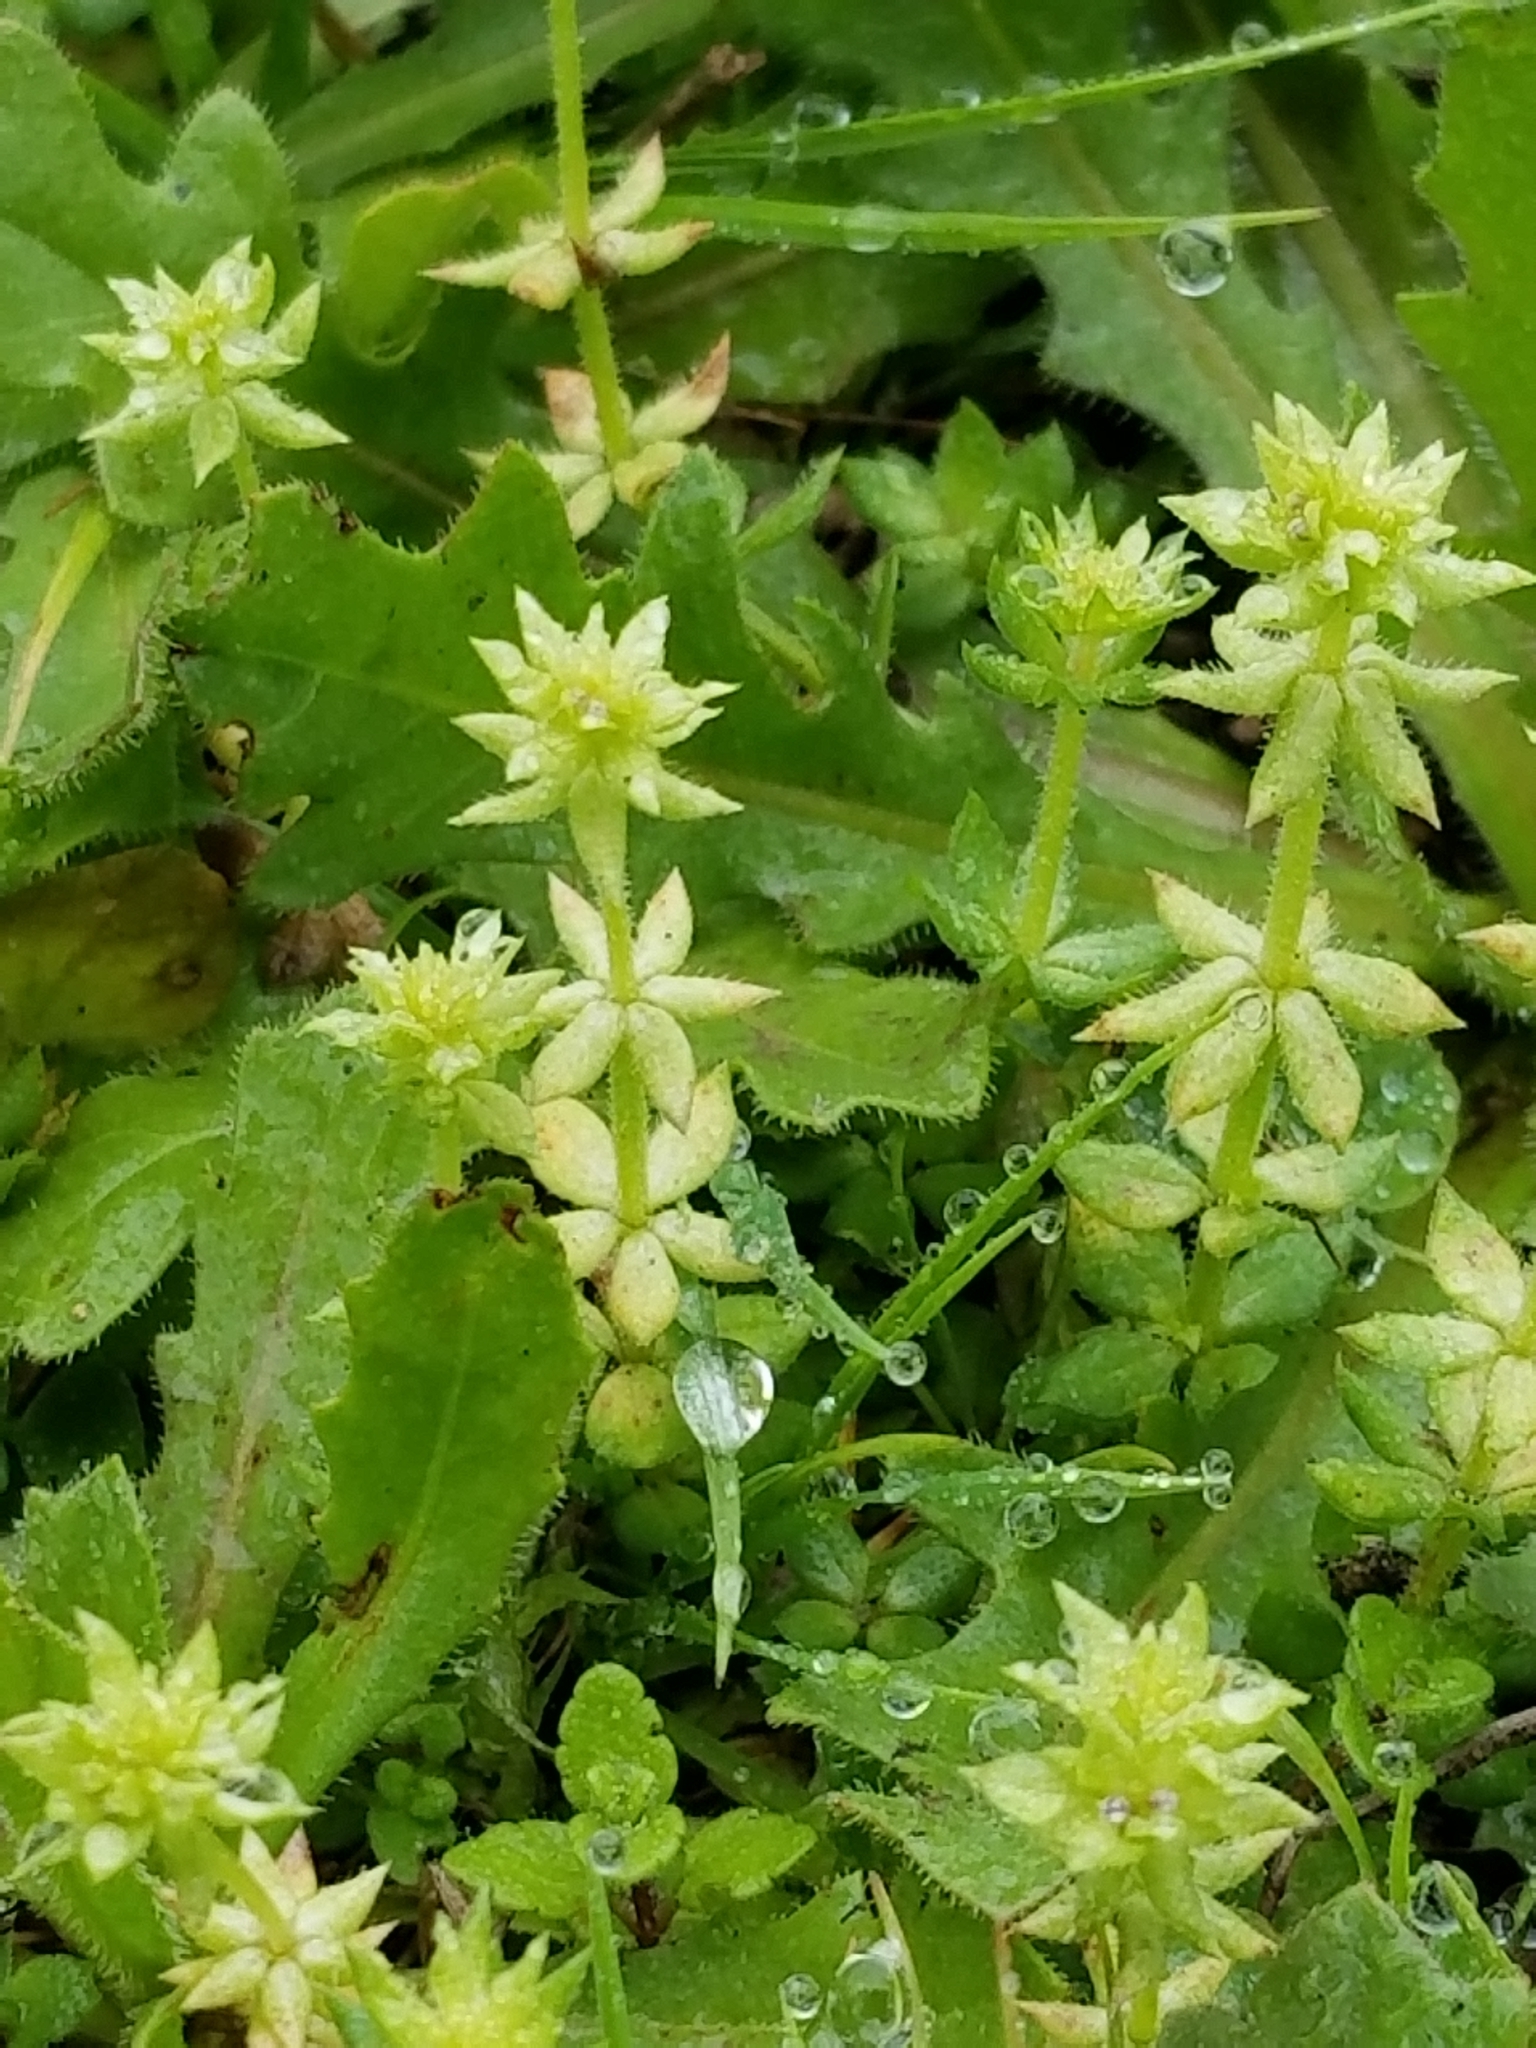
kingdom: Plantae
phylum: Tracheophyta
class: Magnoliopsida
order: Gentianales
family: Rubiaceae
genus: Sherardia
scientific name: Sherardia arvensis
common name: Field madder
